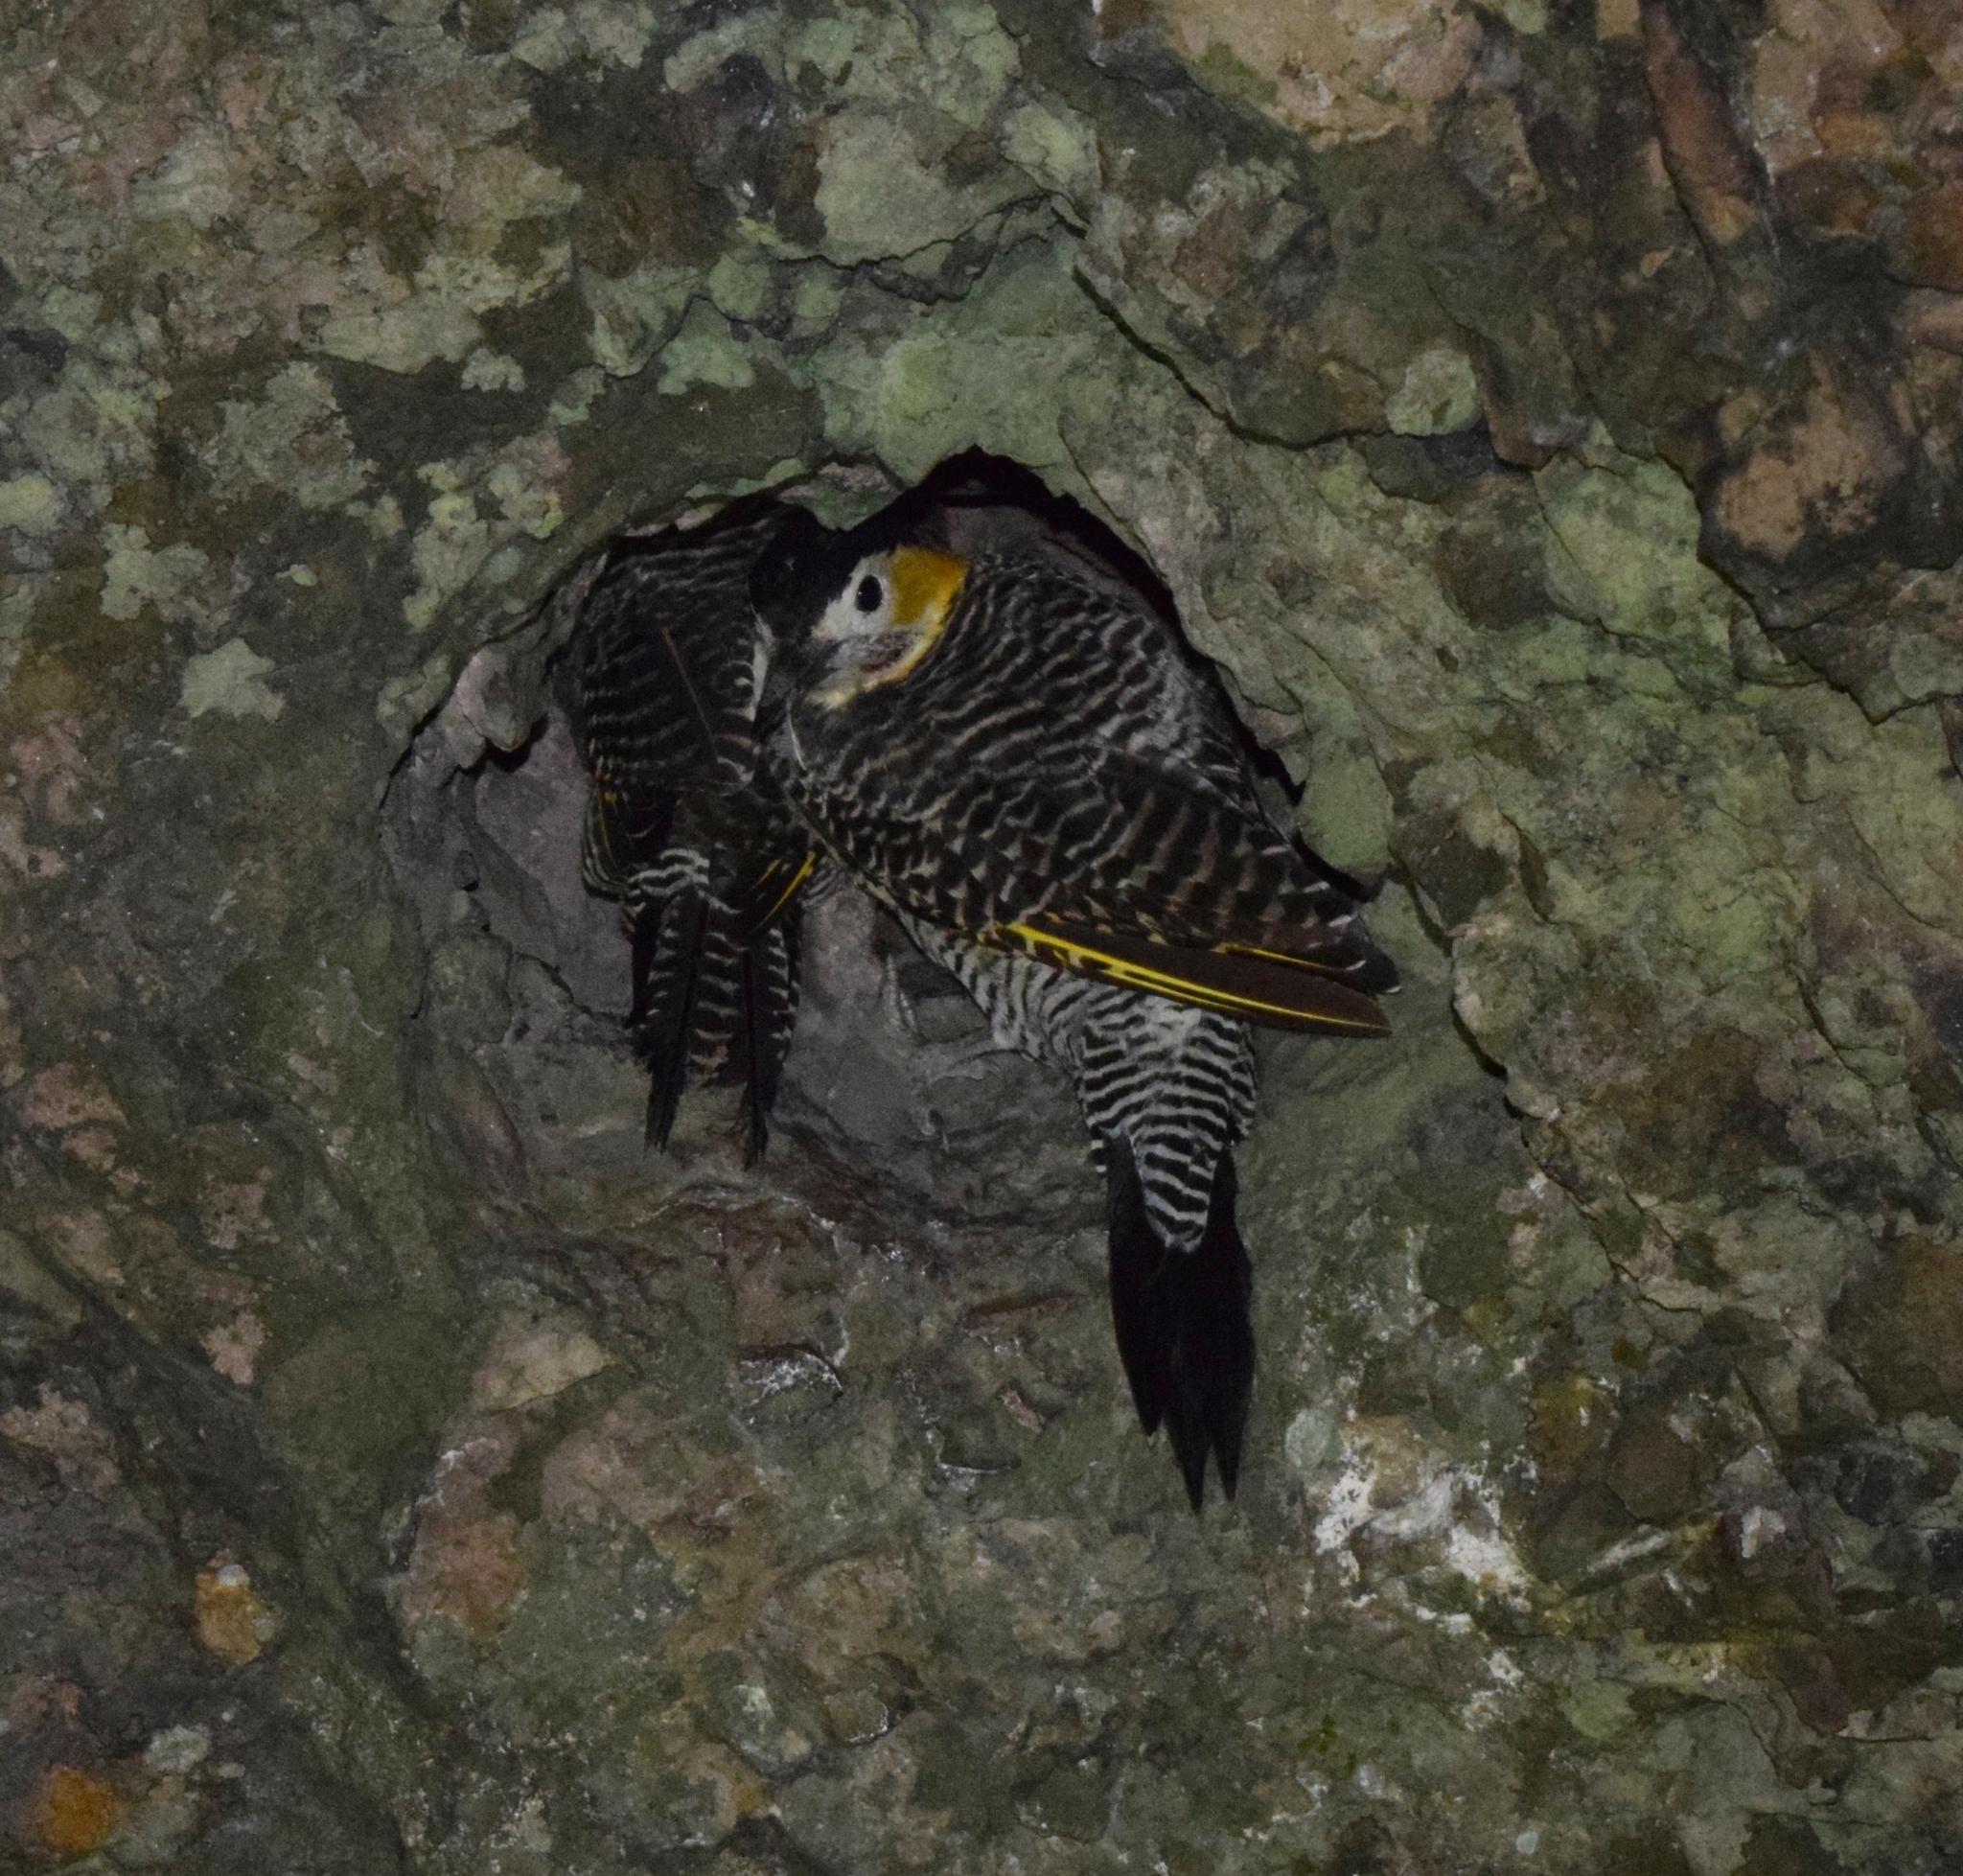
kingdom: Animalia
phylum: Chordata
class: Aves
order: Piciformes
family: Picidae
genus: Colaptes
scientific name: Colaptes campestris
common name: Campo flicker
